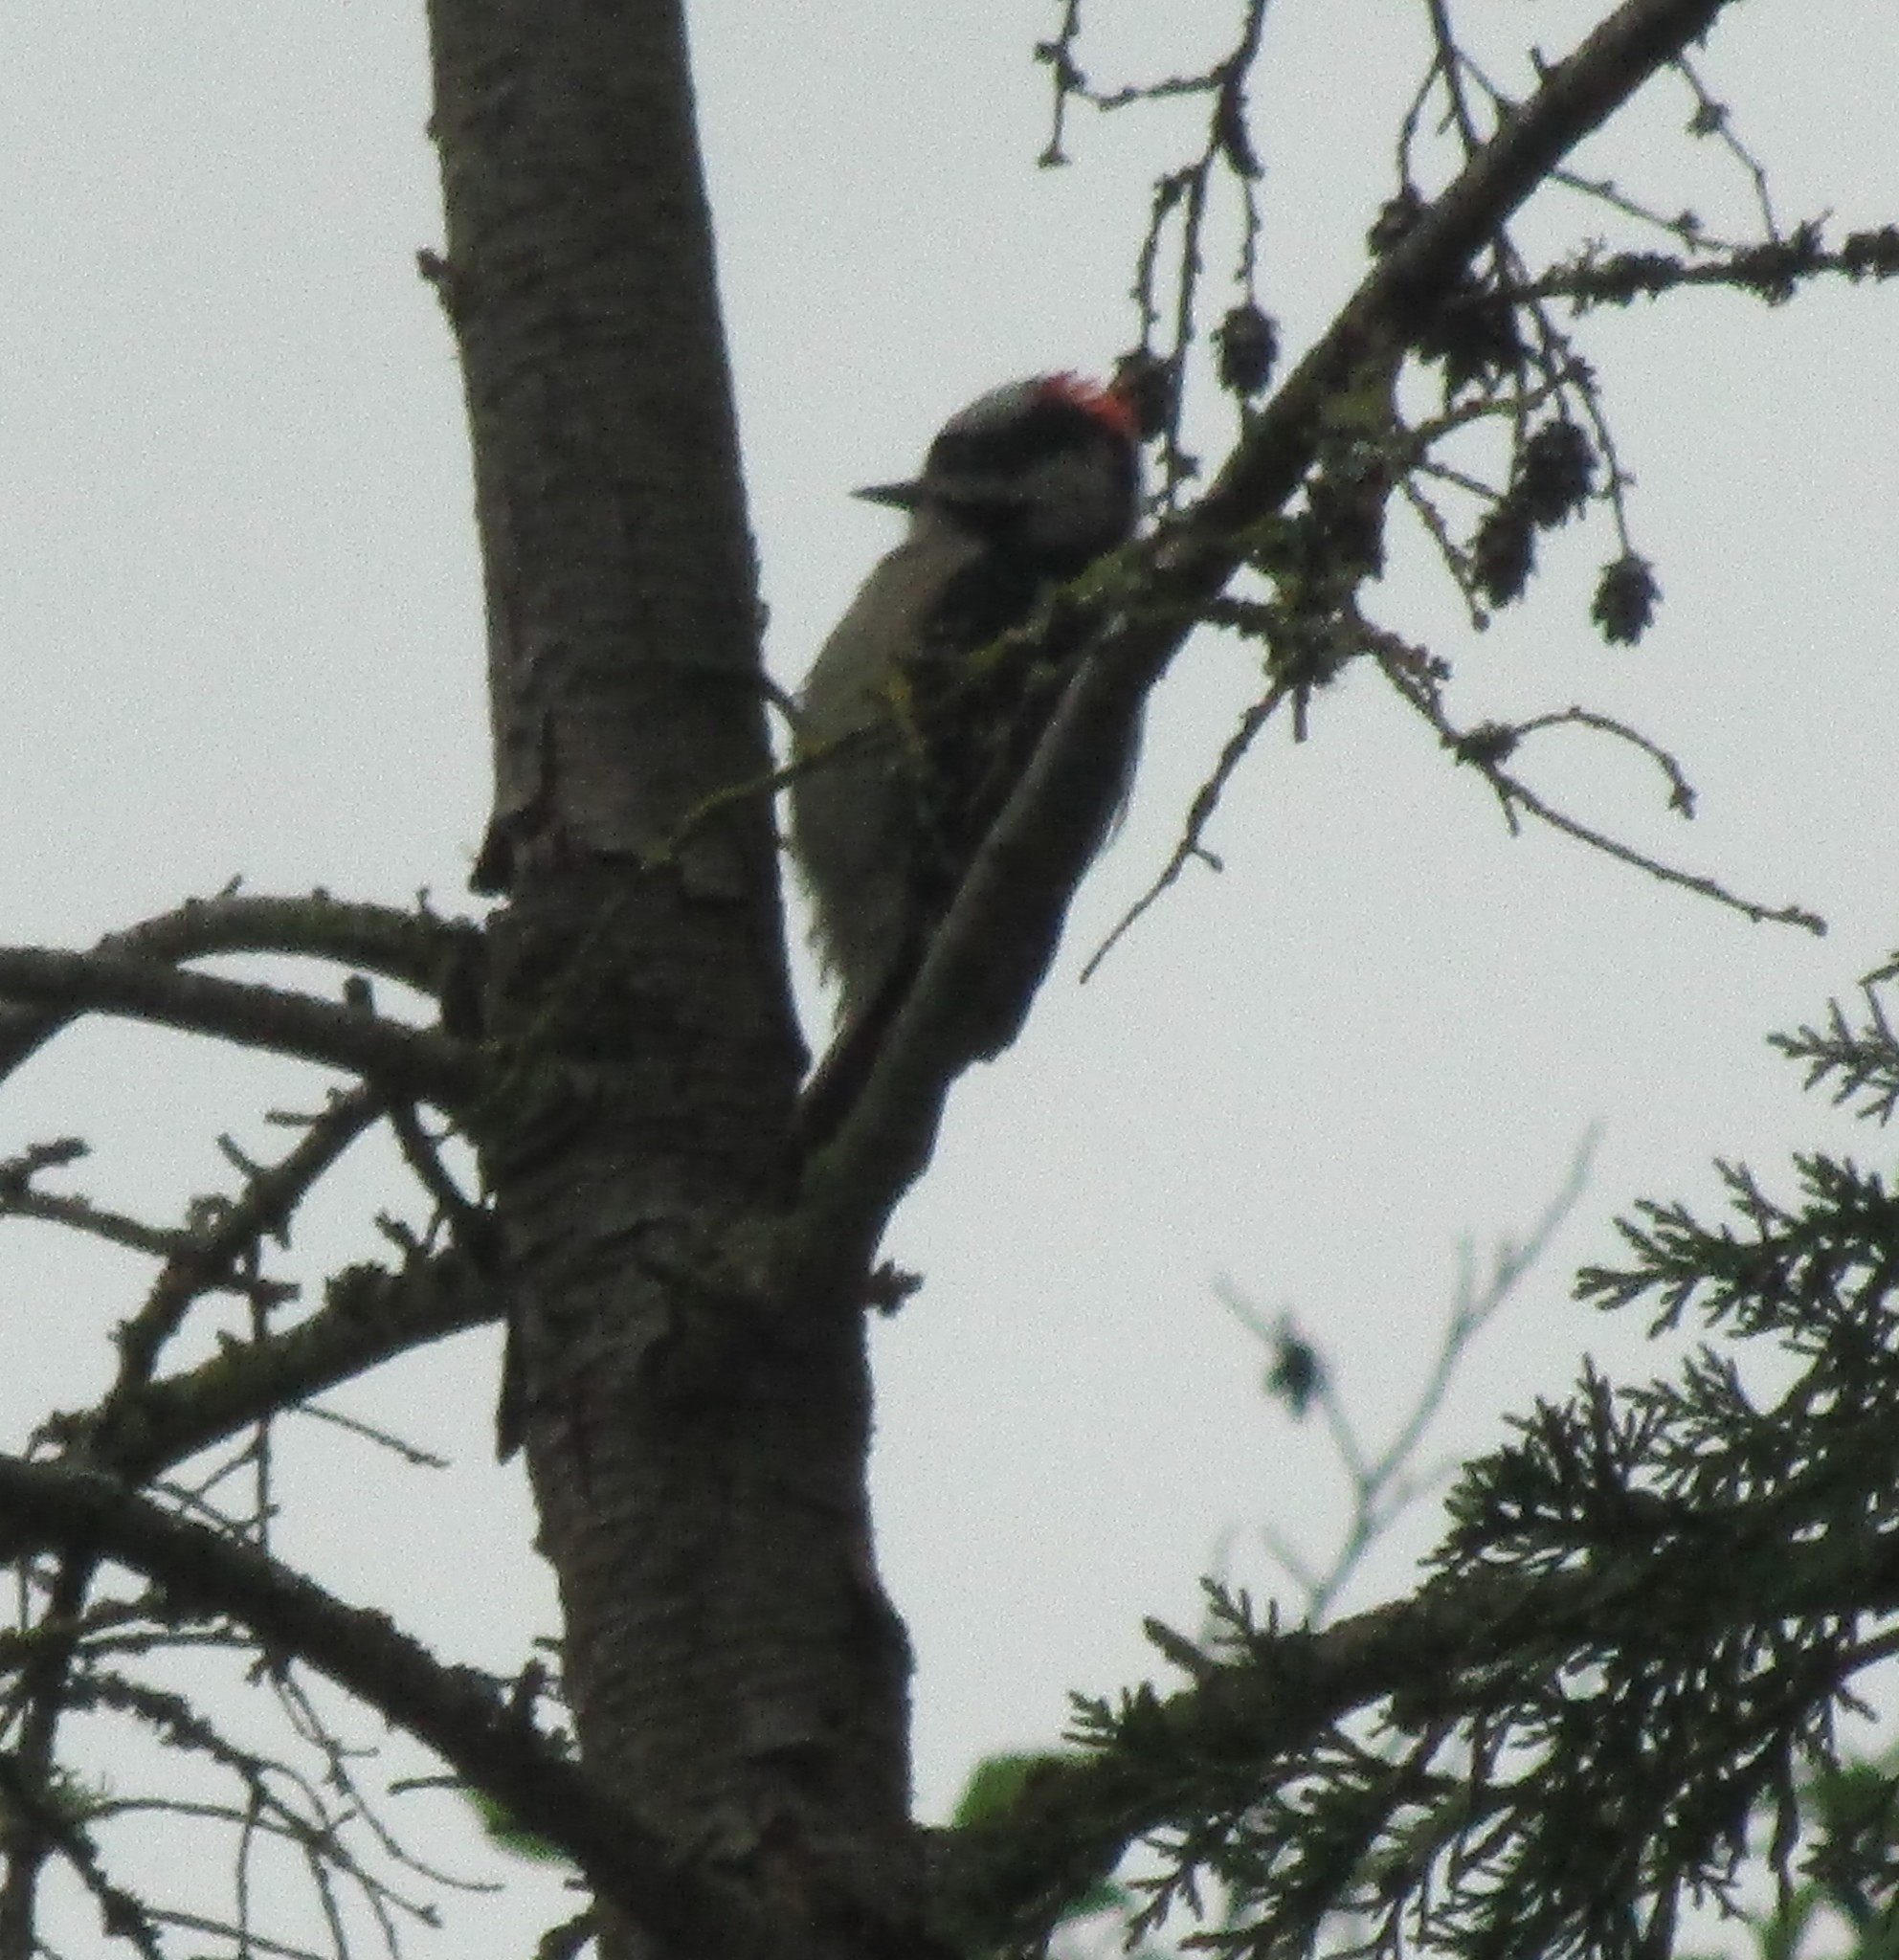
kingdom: Animalia
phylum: Chordata
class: Aves
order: Piciformes
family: Picidae
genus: Dryobates
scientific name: Dryobates pubescens
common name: Downy woodpecker
